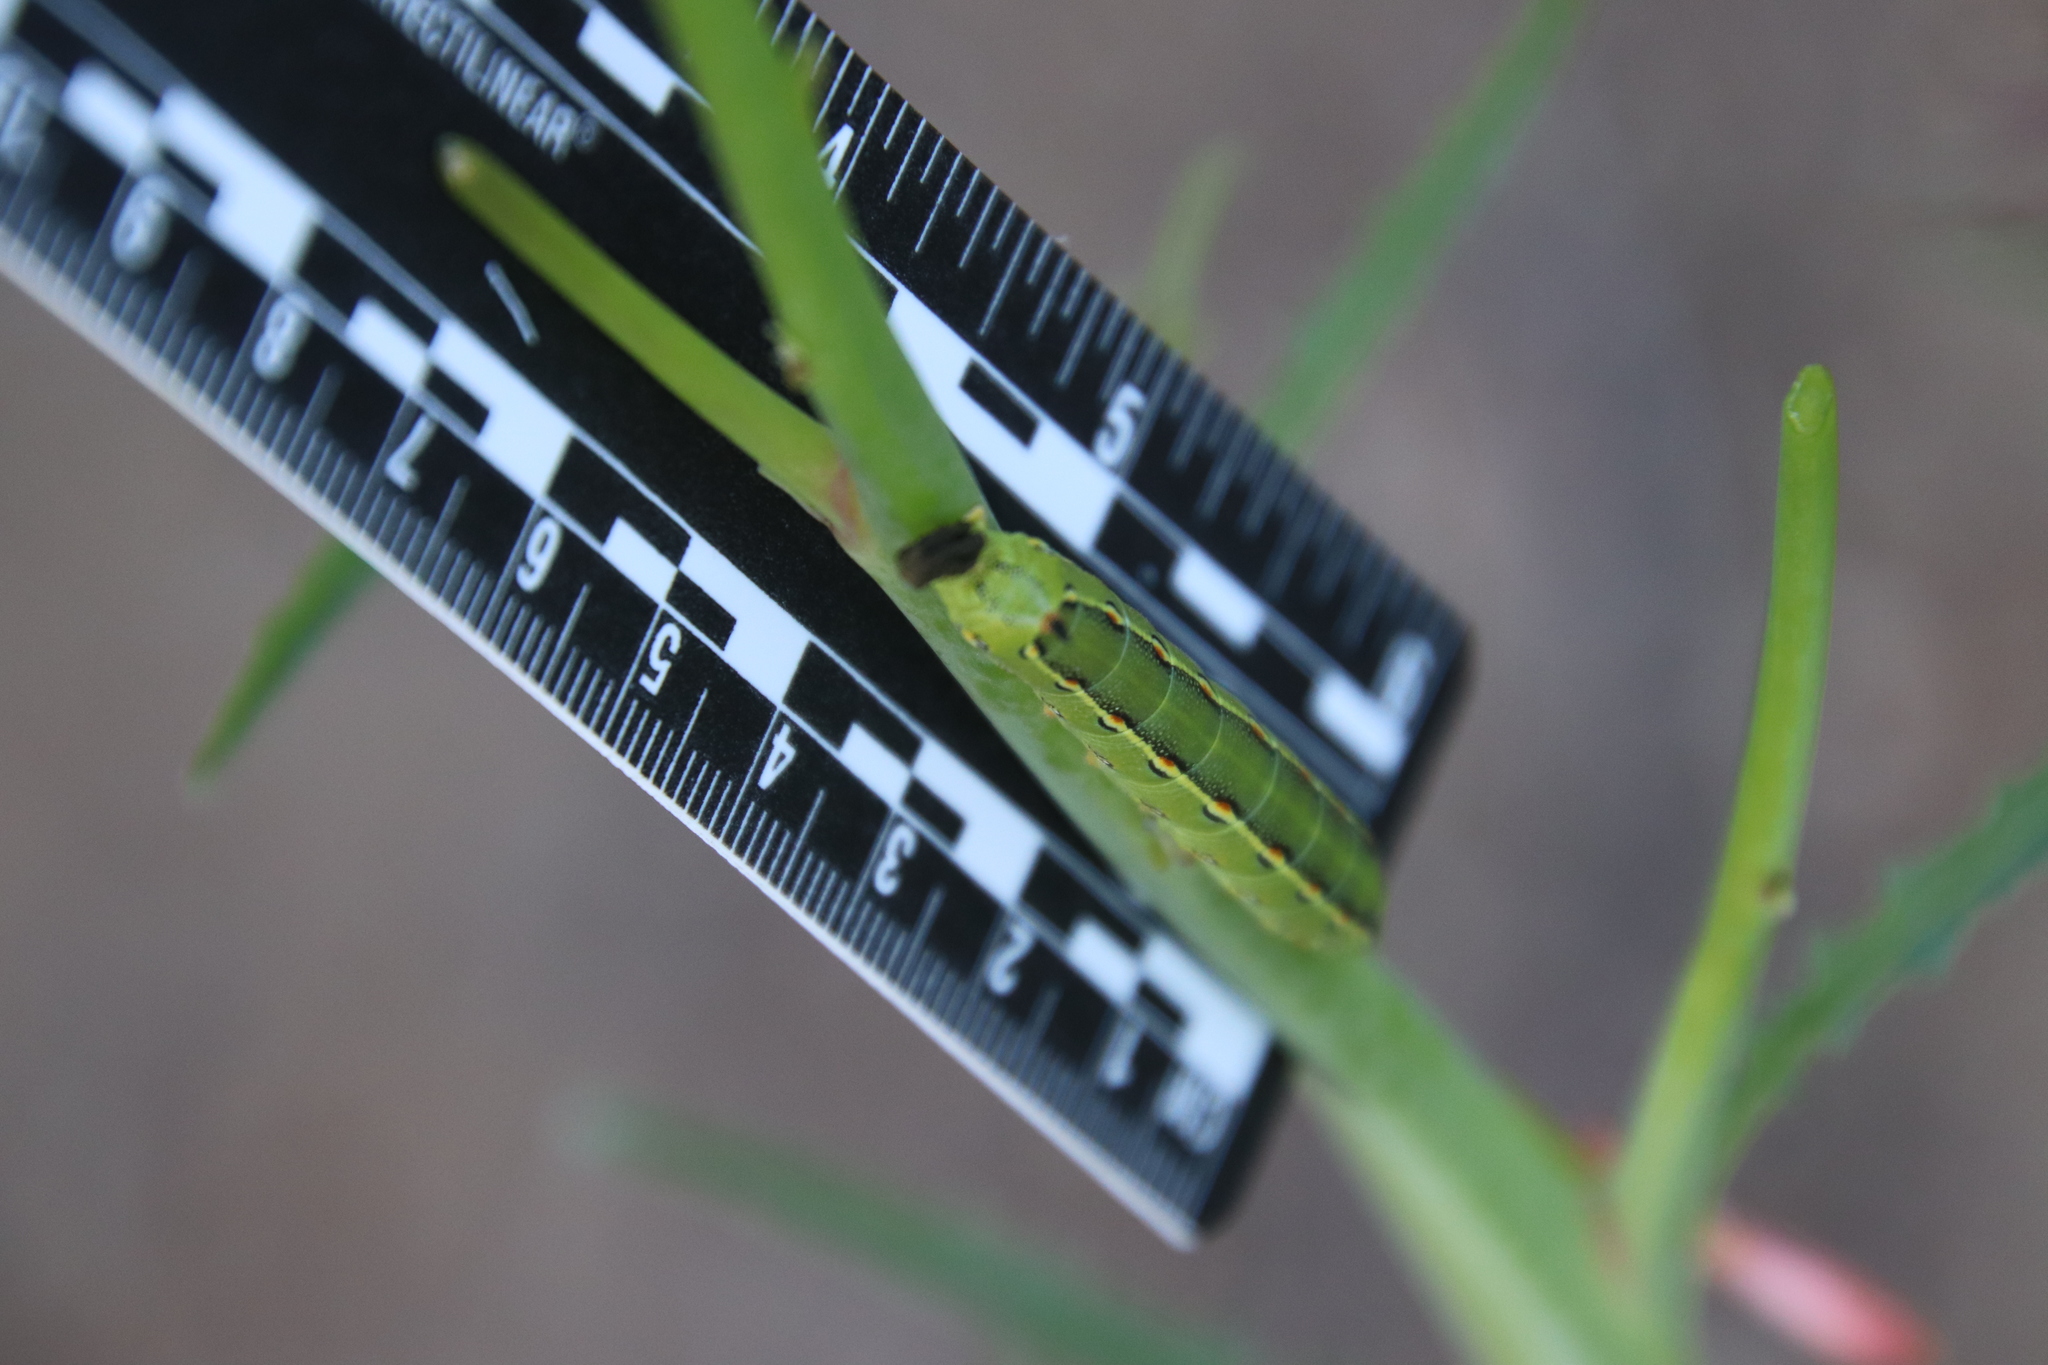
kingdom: Animalia
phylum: Arthropoda
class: Insecta
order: Lepidoptera
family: Sphingidae
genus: Hyles
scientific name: Hyles lineata
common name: White-lined sphinx
